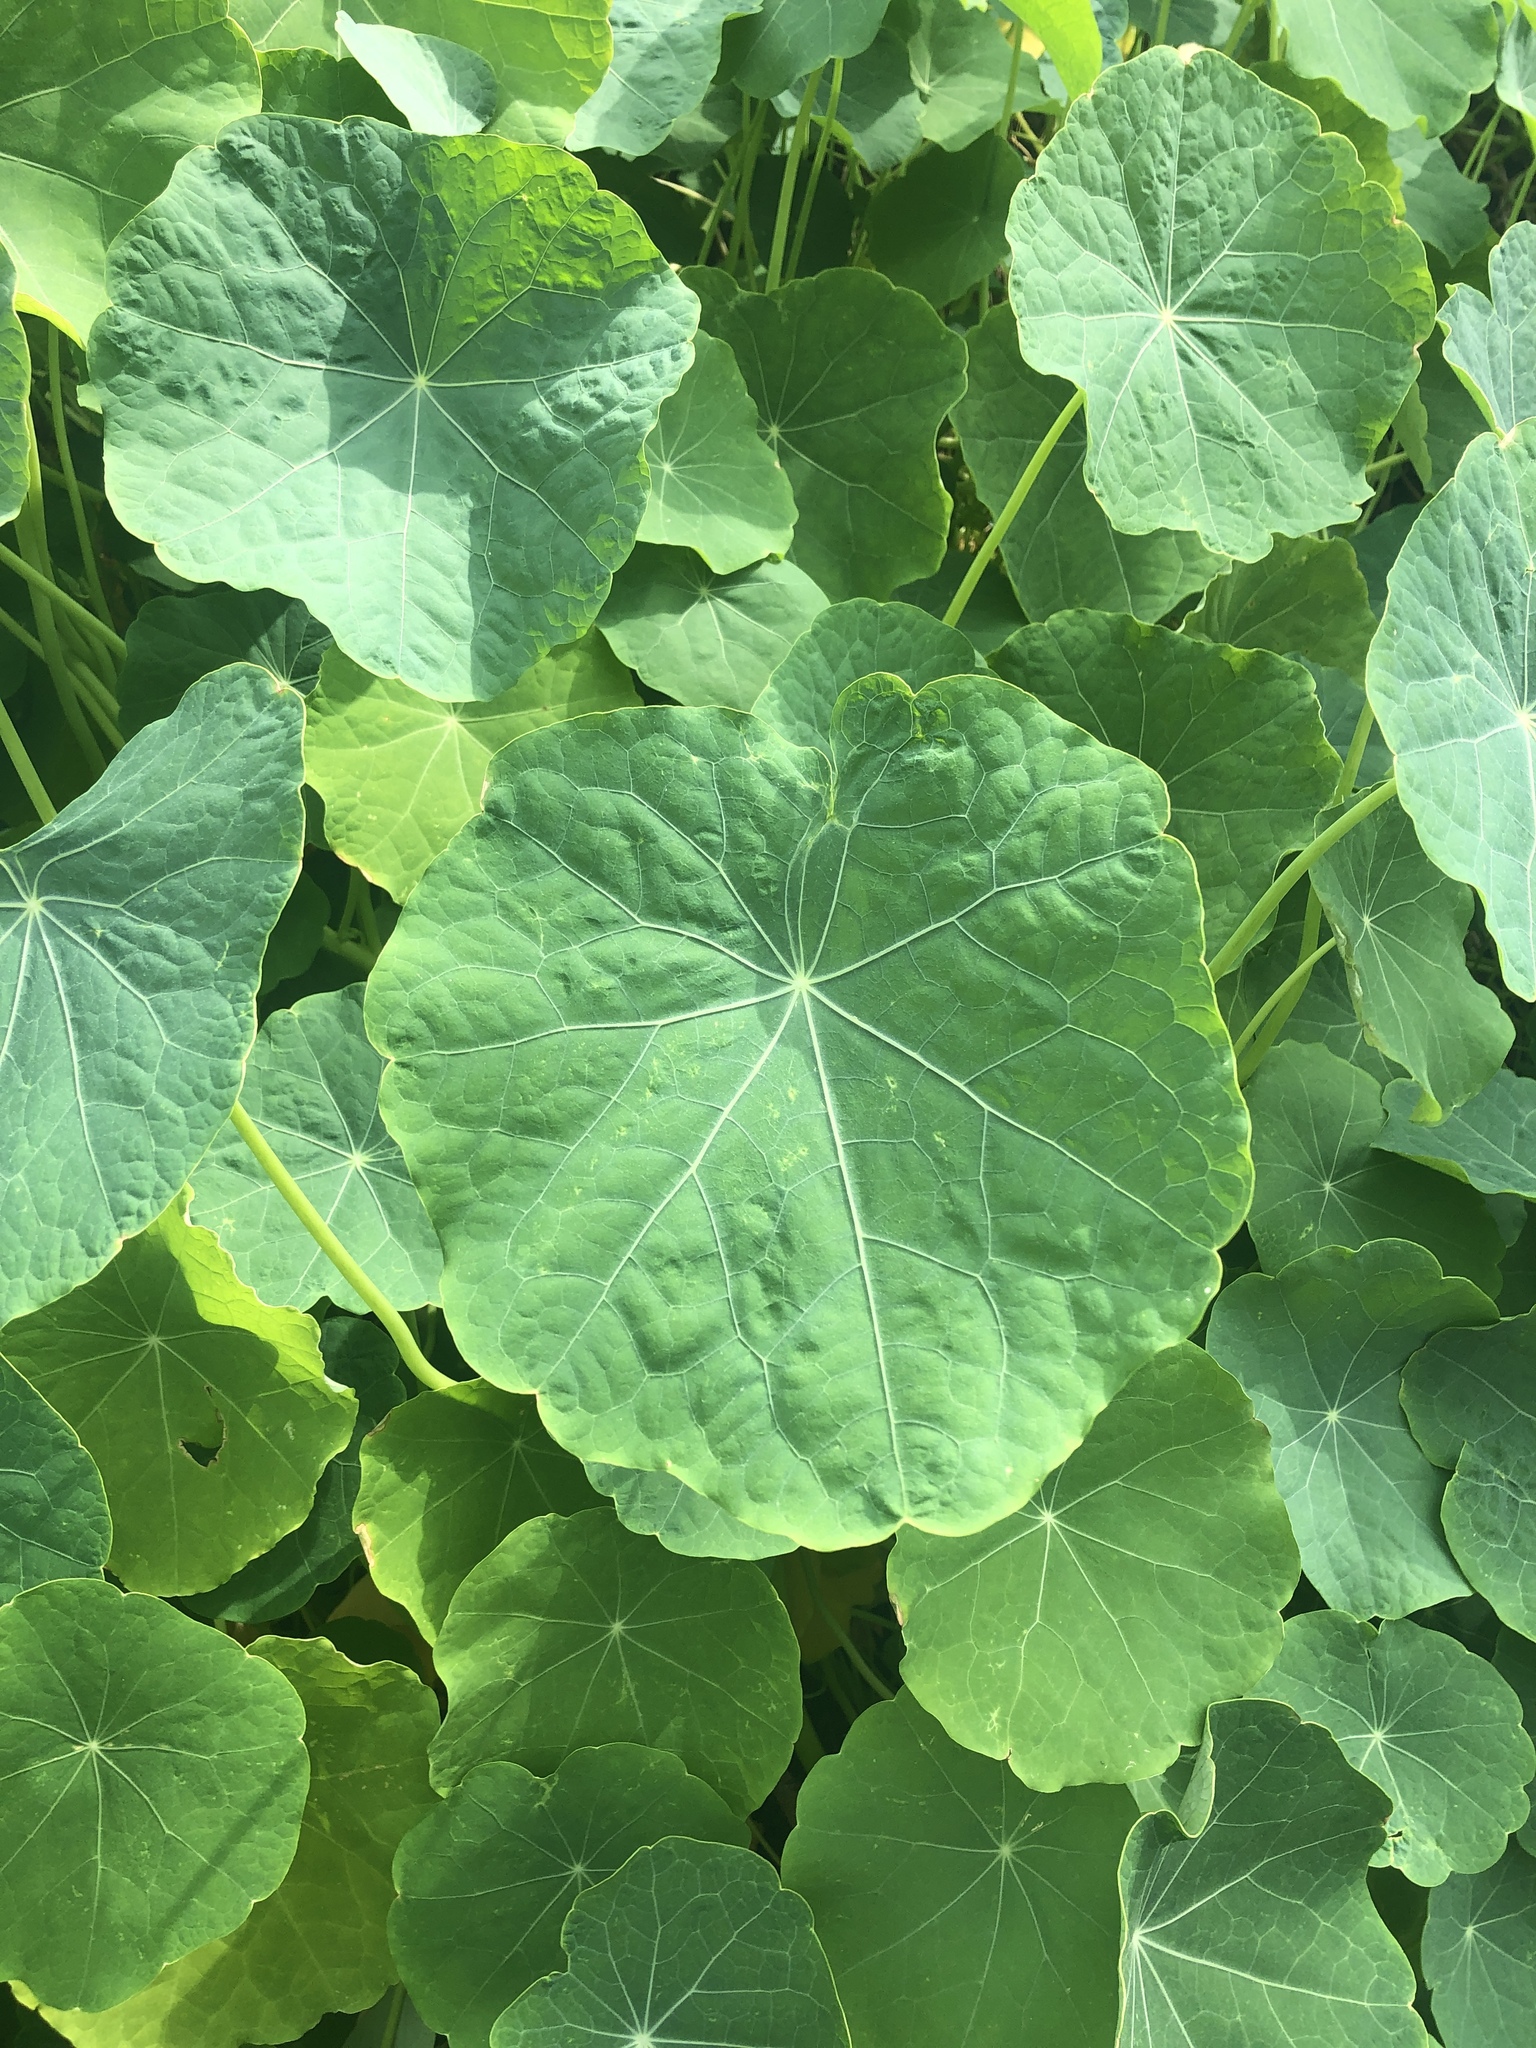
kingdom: Plantae
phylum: Tracheophyta
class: Magnoliopsida
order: Brassicales
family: Tropaeolaceae
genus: Tropaeolum
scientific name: Tropaeolum majus
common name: Nasturtium
